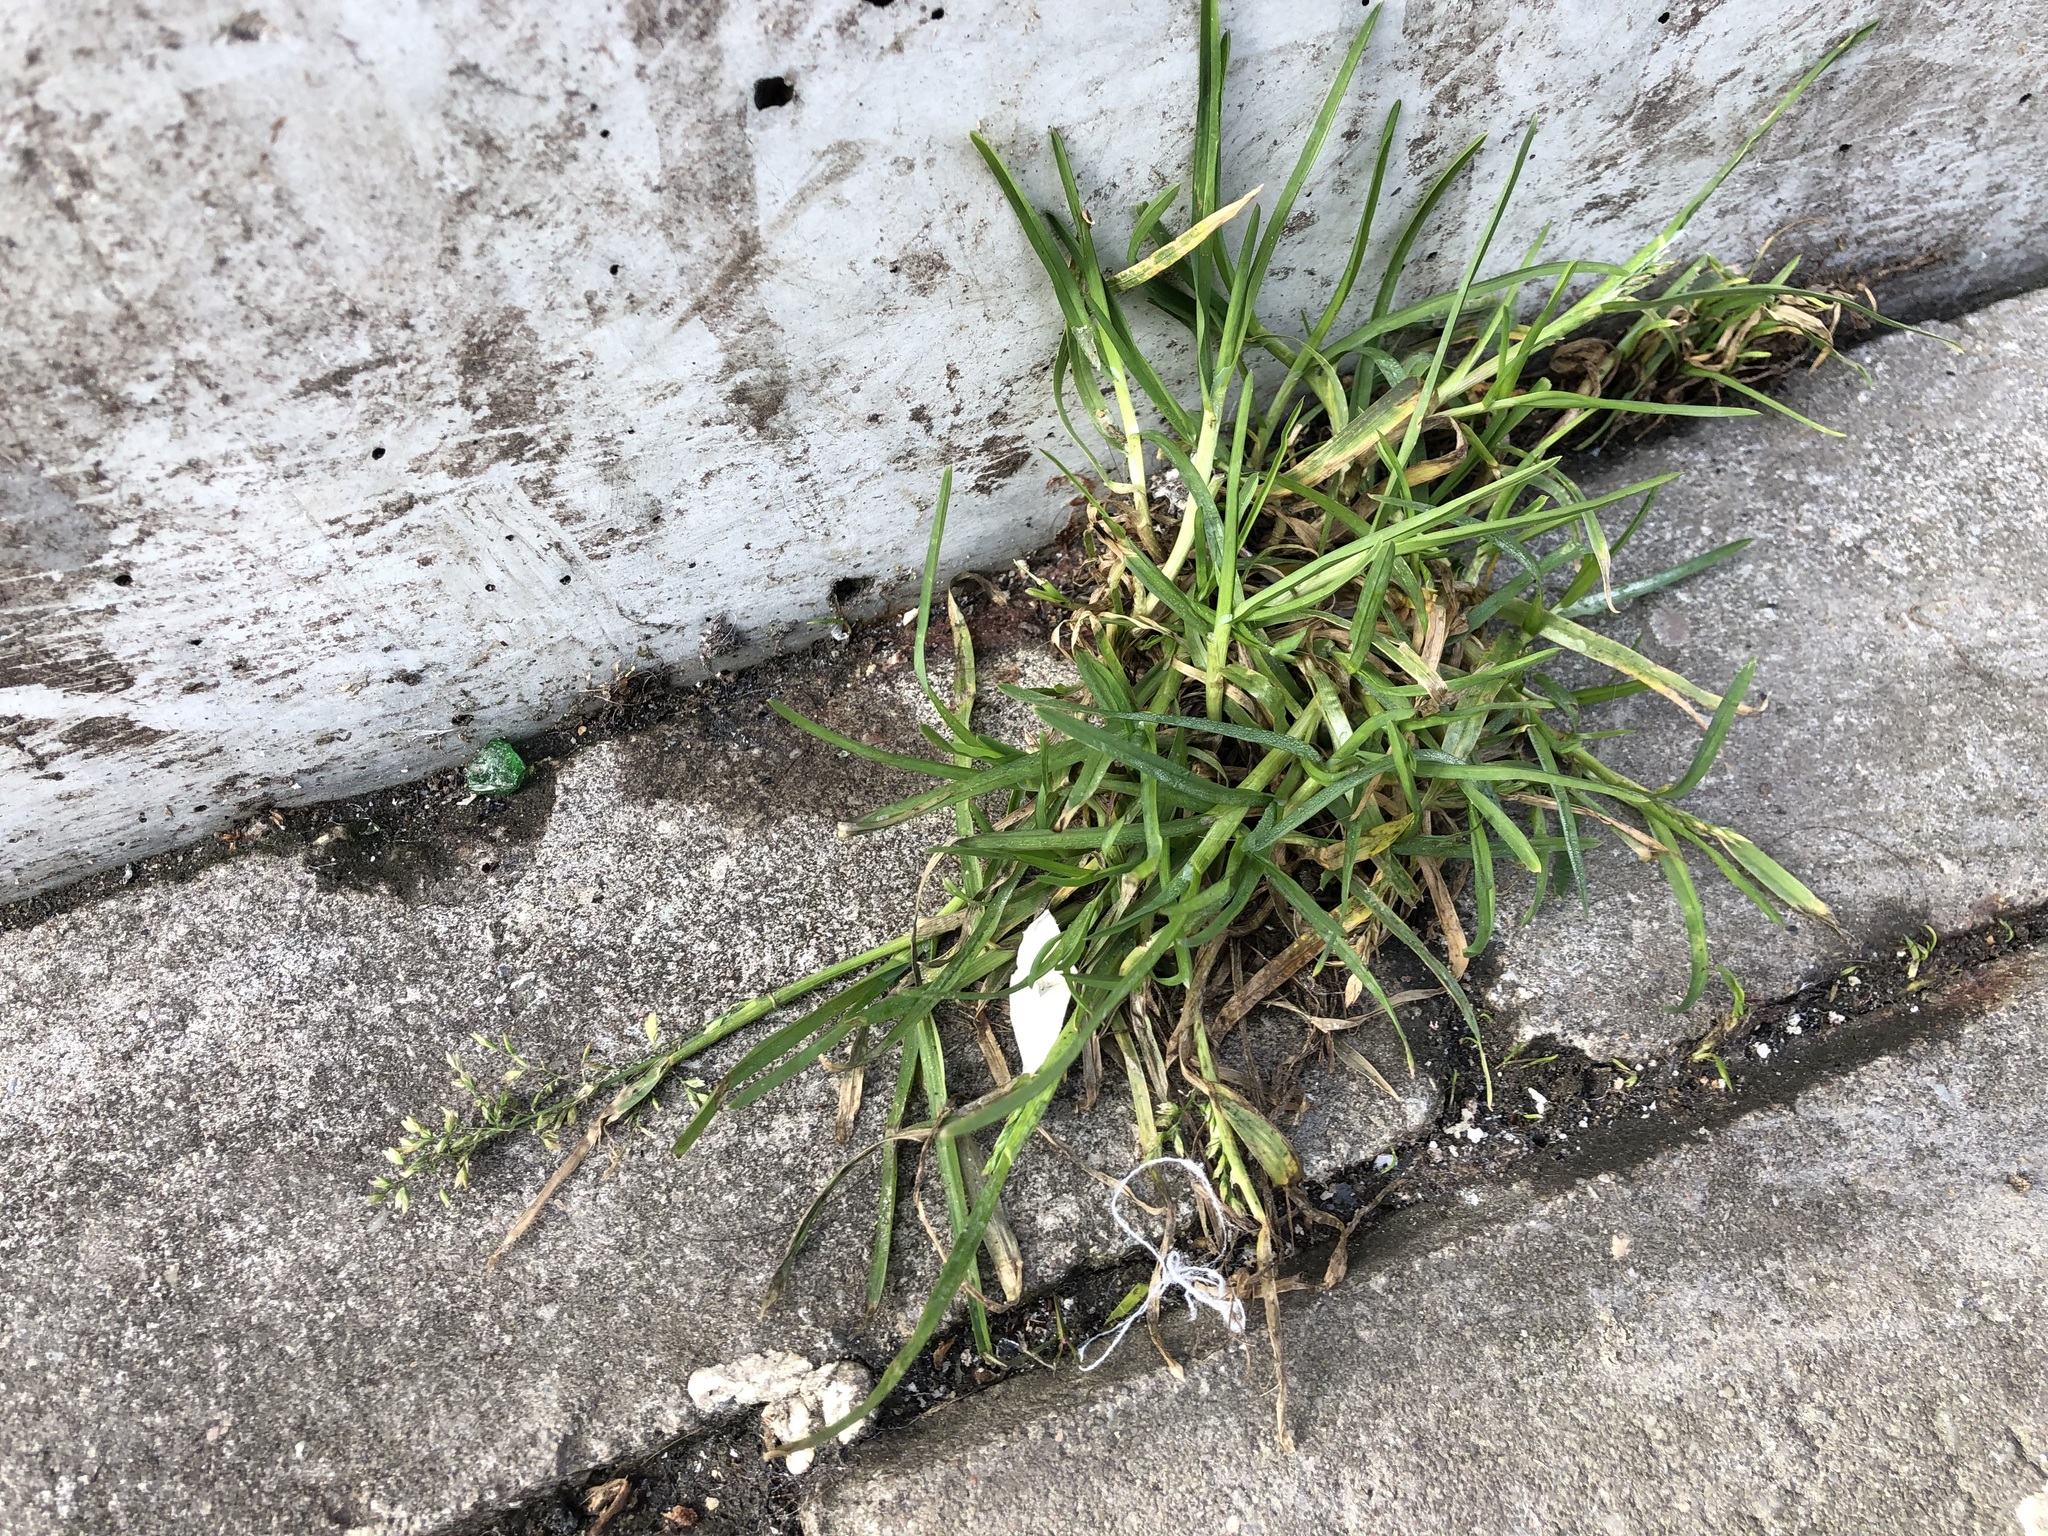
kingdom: Plantae
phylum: Tracheophyta
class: Liliopsida
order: Poales
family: Poaceae
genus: Poa
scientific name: Poa annua
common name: Annual bluegrass
